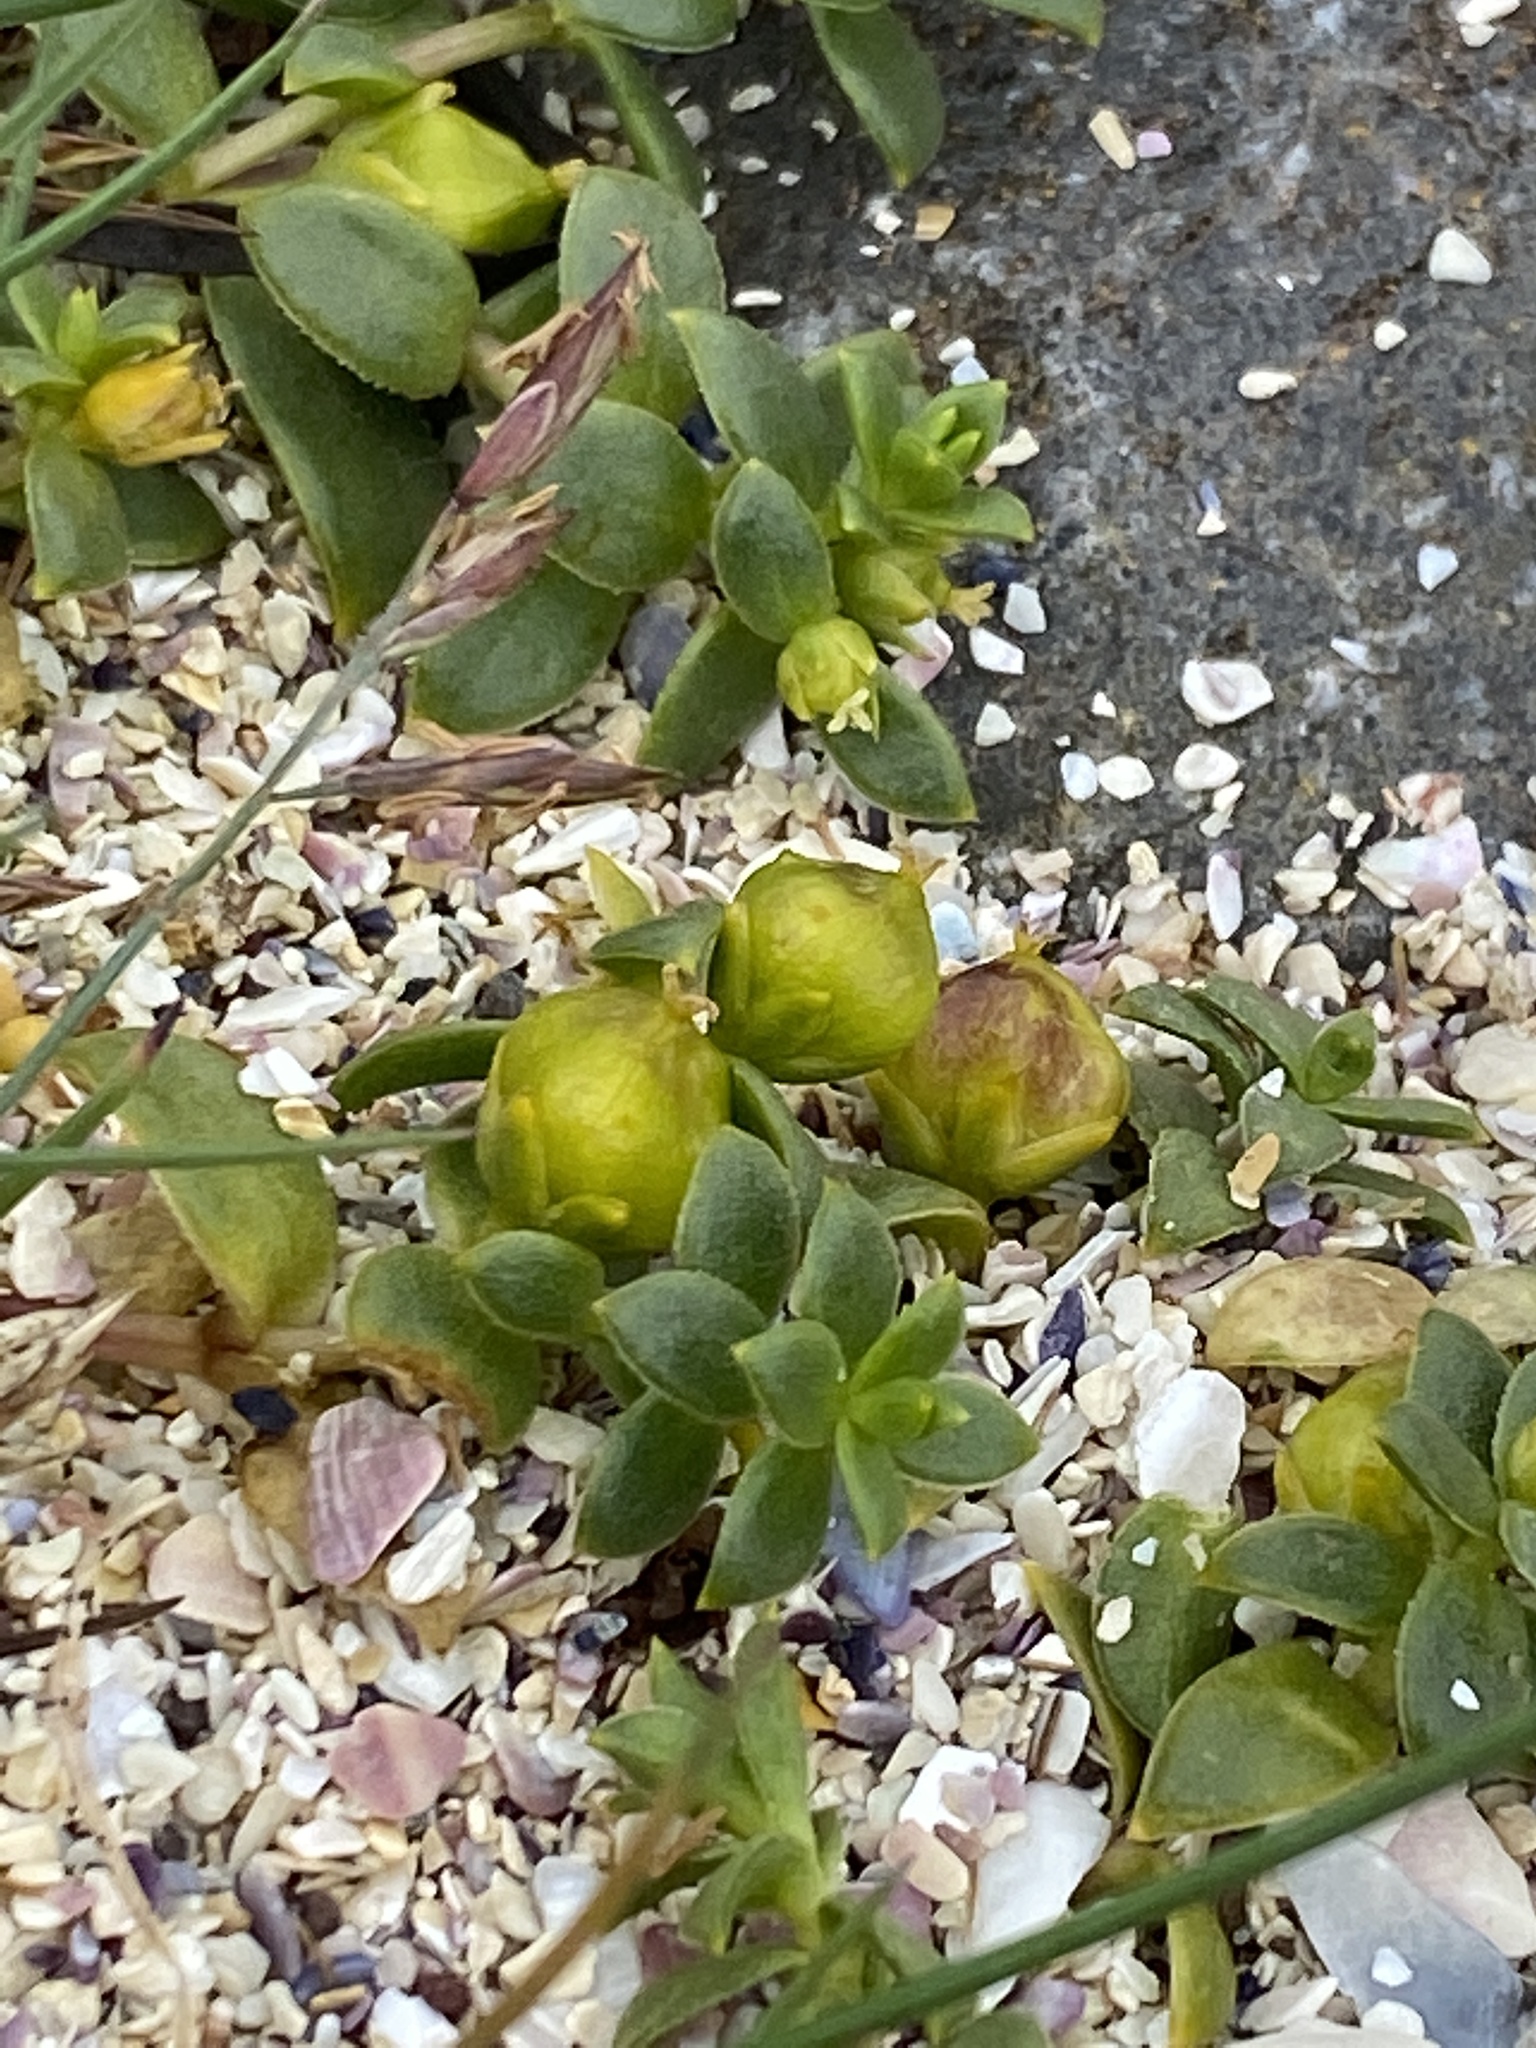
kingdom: Plantae
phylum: Tracheophyta
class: Magnoliopsida
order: Caryophyllales
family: Caryophyllaceae
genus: Honckenya
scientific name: Honckenya peploides
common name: Sea sandwort
